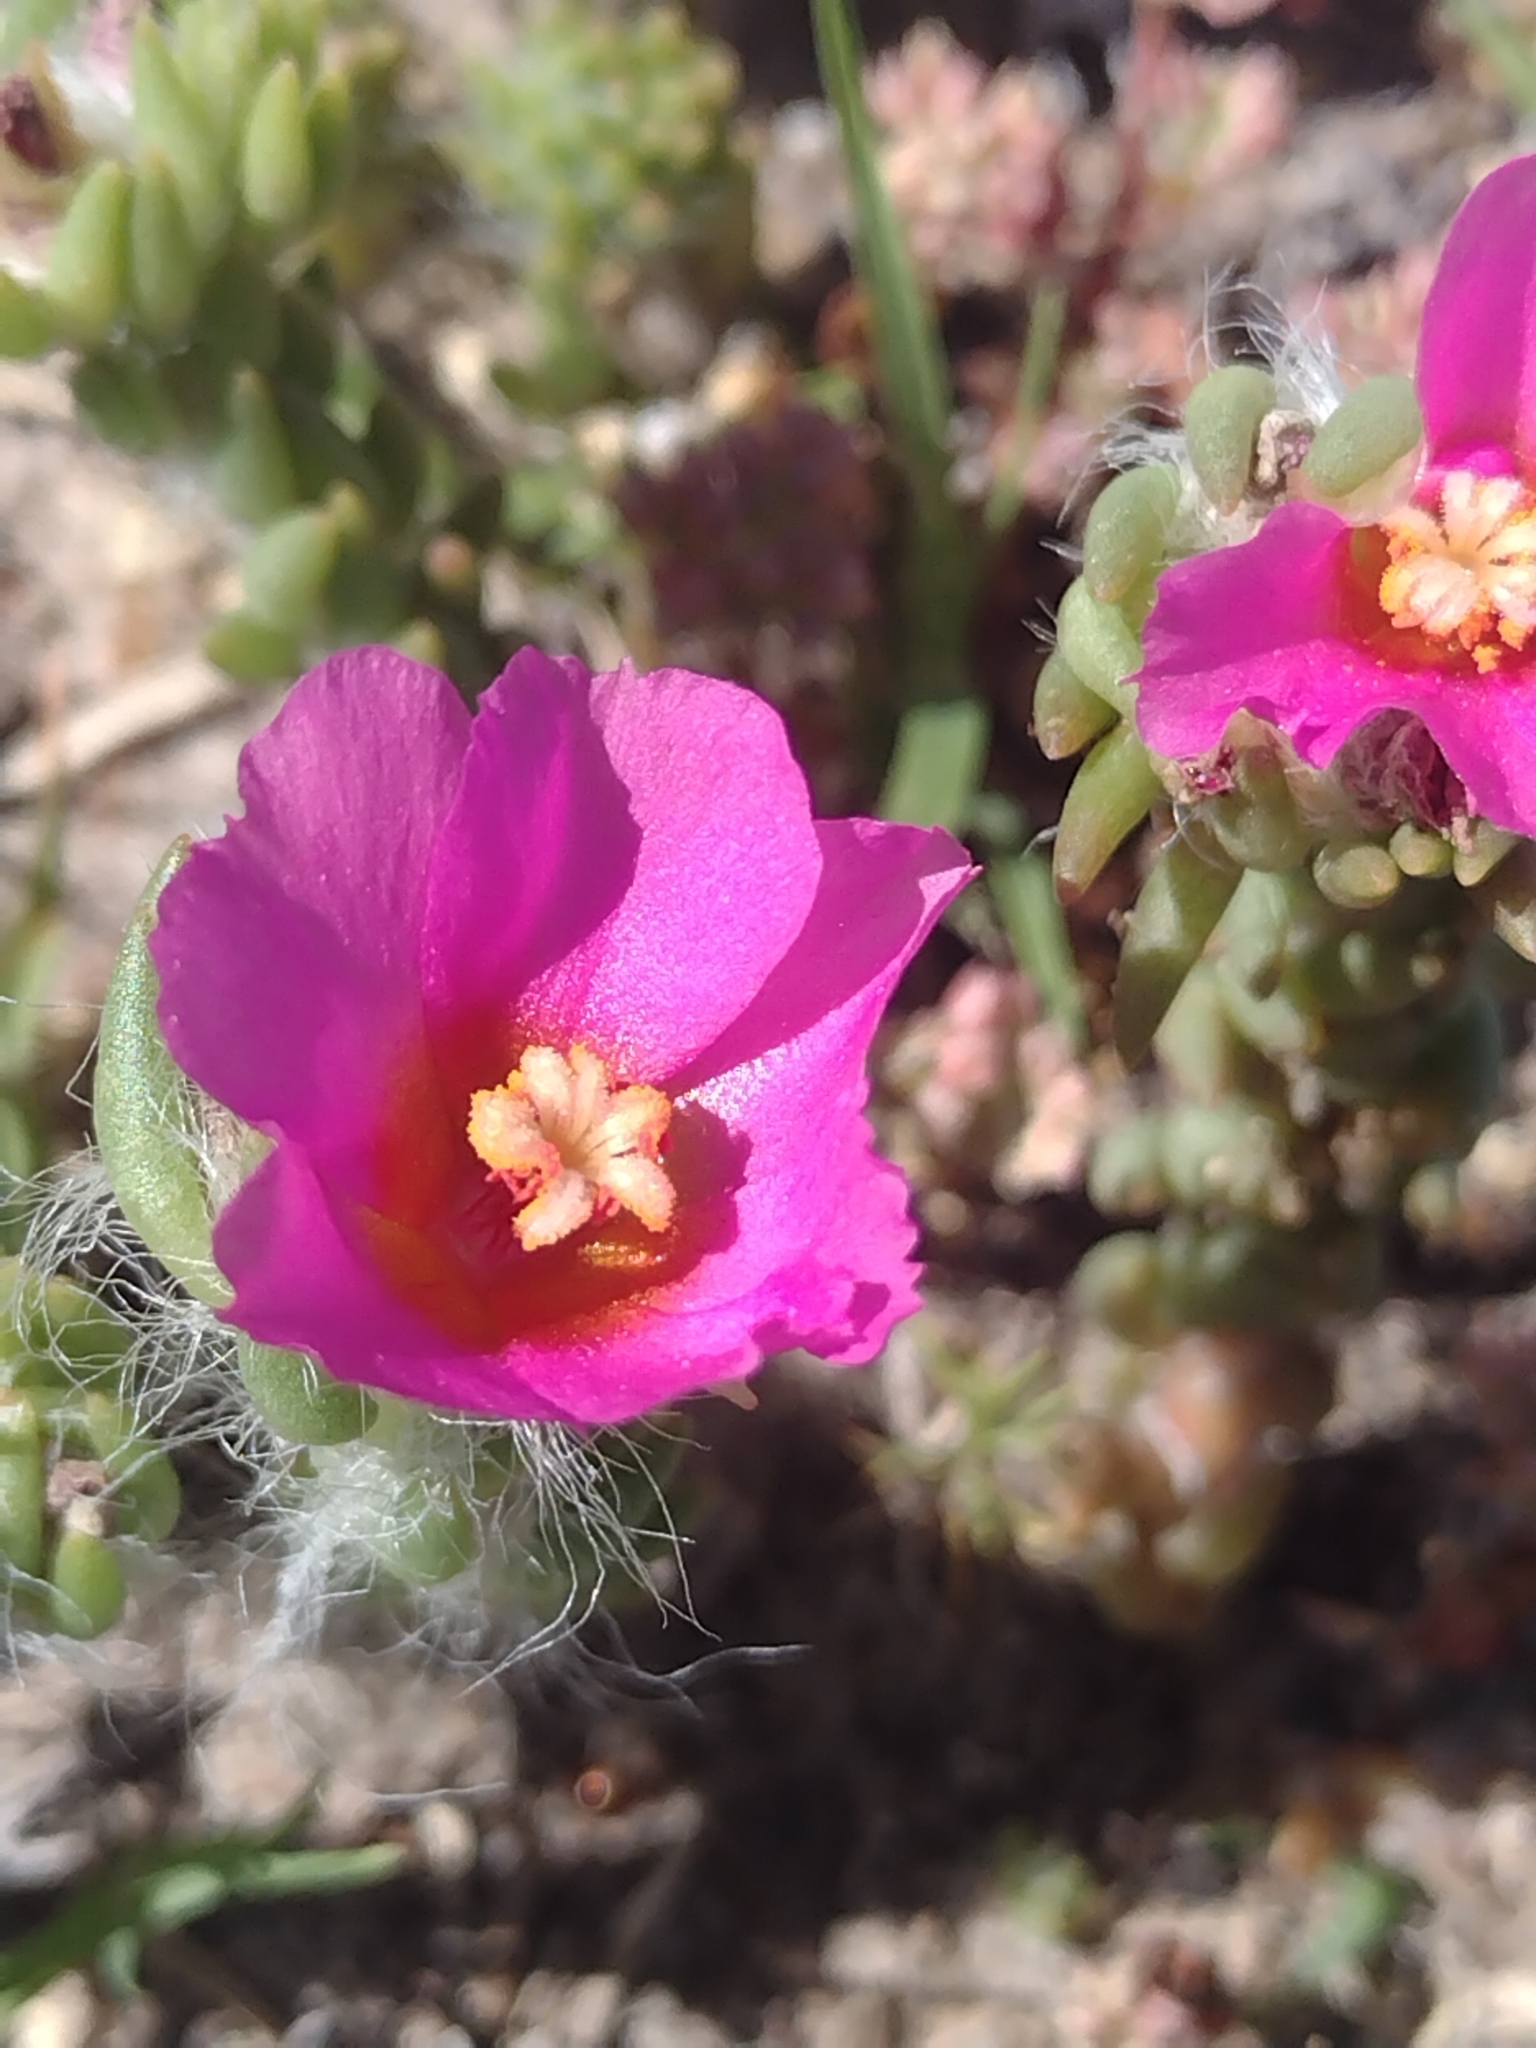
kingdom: Plantae
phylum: Tracheophyta
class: Magnoliopsida
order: Caryophyllales
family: Portulacaceae
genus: Portulaca
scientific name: Portulaca grandiflora
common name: Moss-rose
